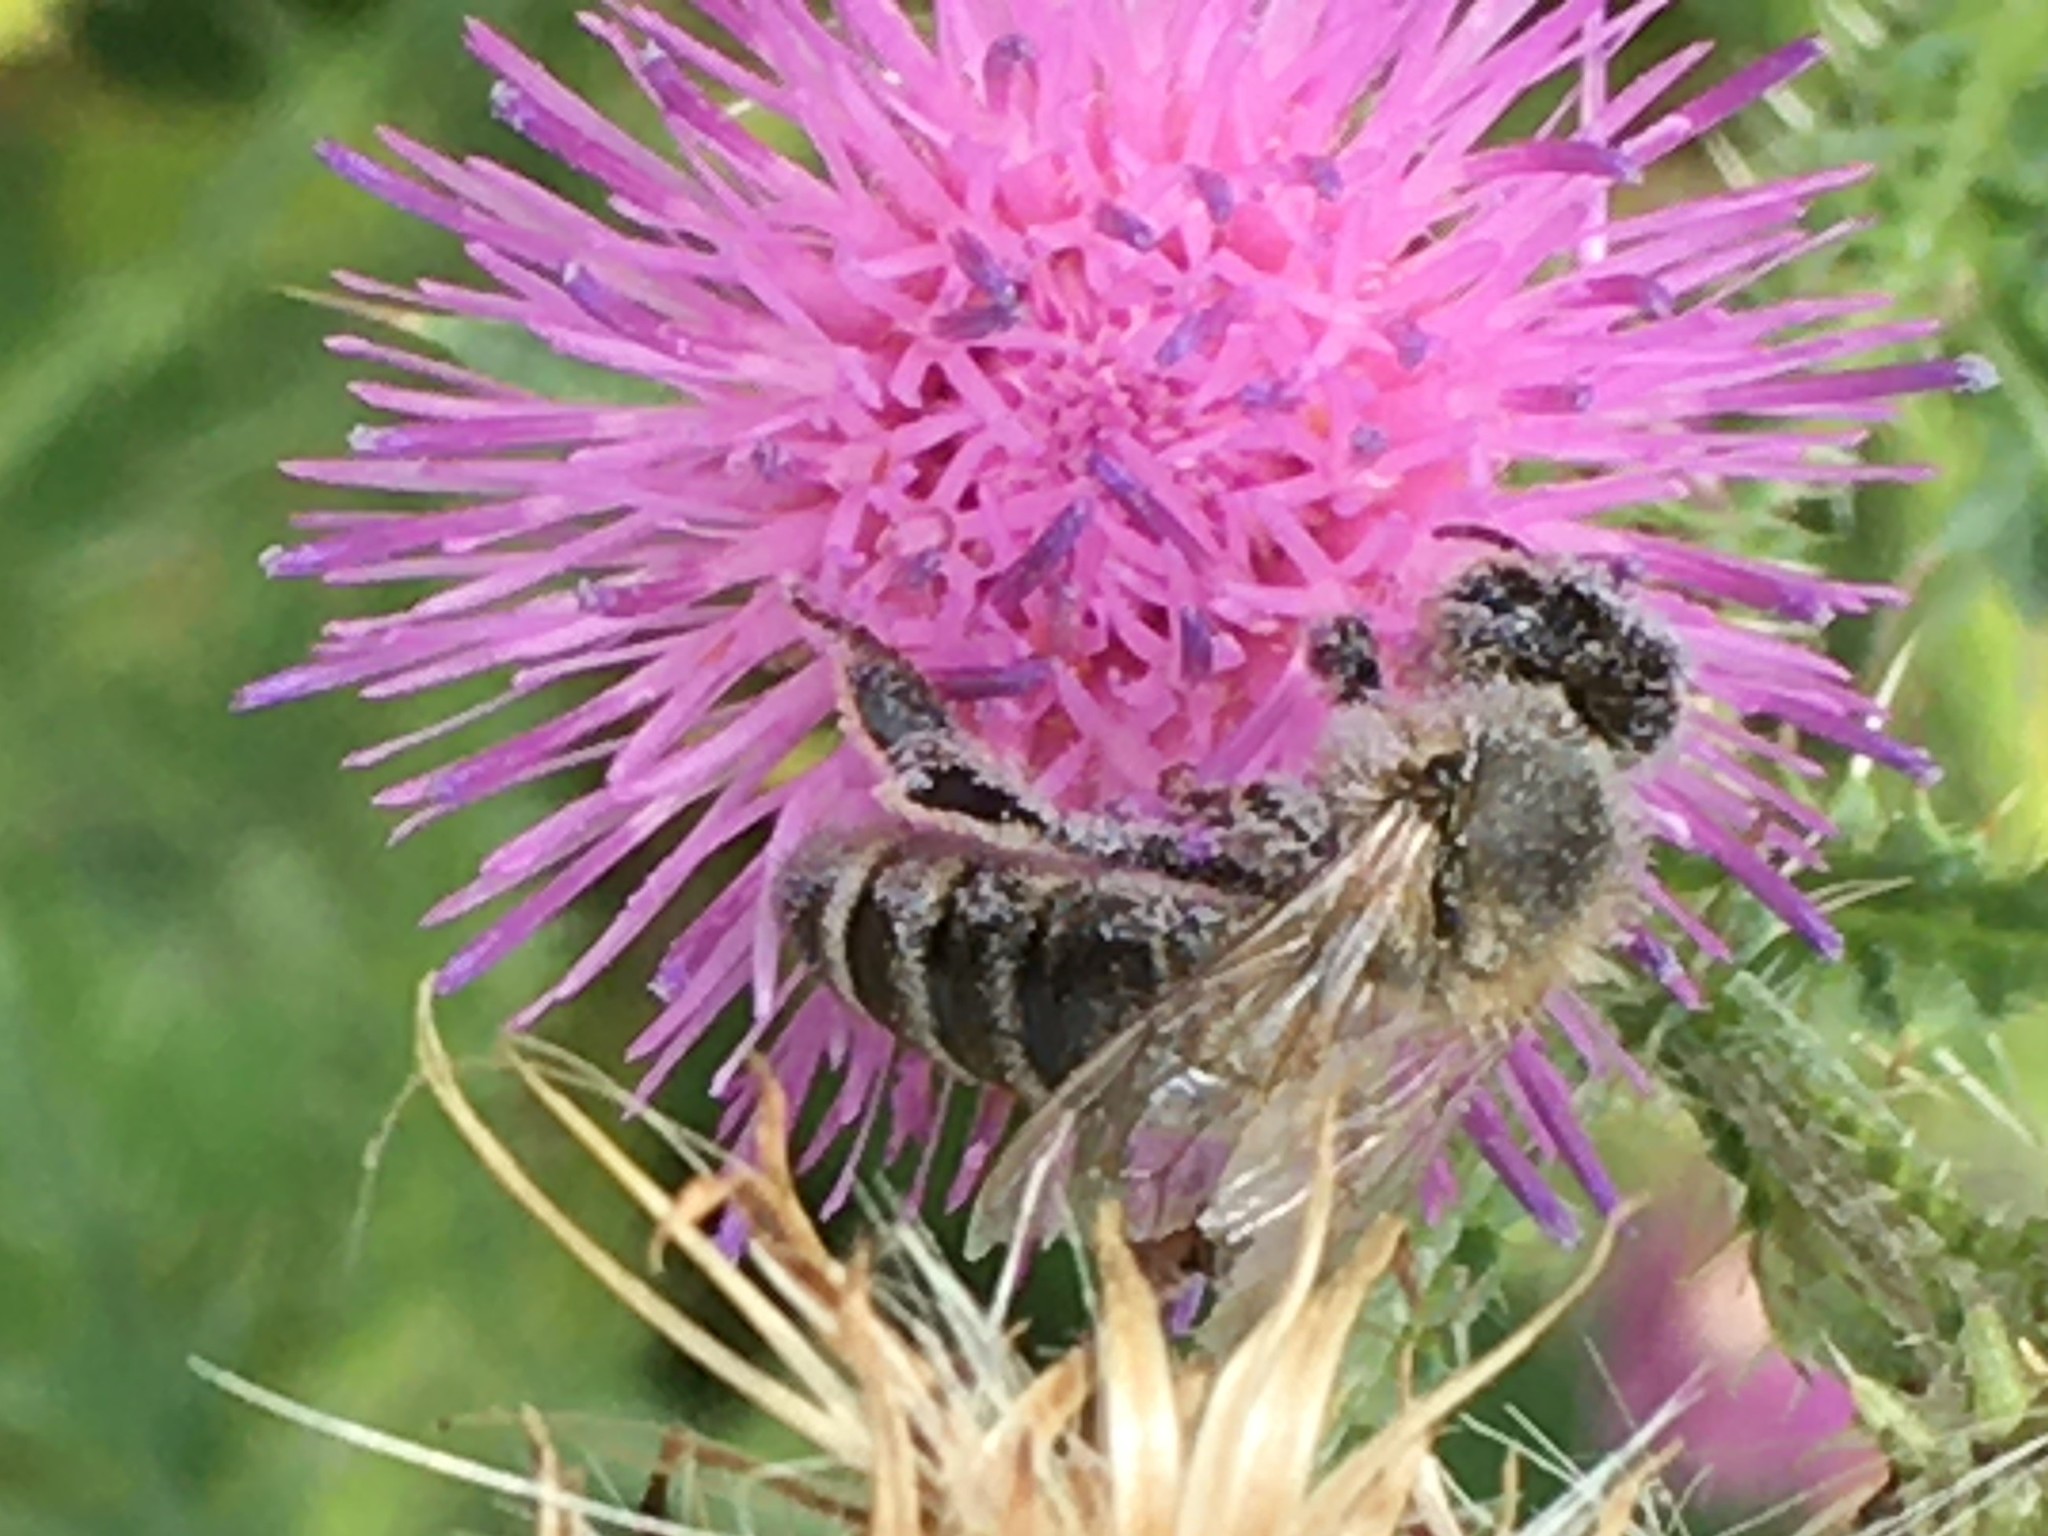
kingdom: Animalia
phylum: Arthropoda
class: Insecta
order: Hymenoptera
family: Apidae
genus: Apis
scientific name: Apis mellifera
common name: Honey bee
